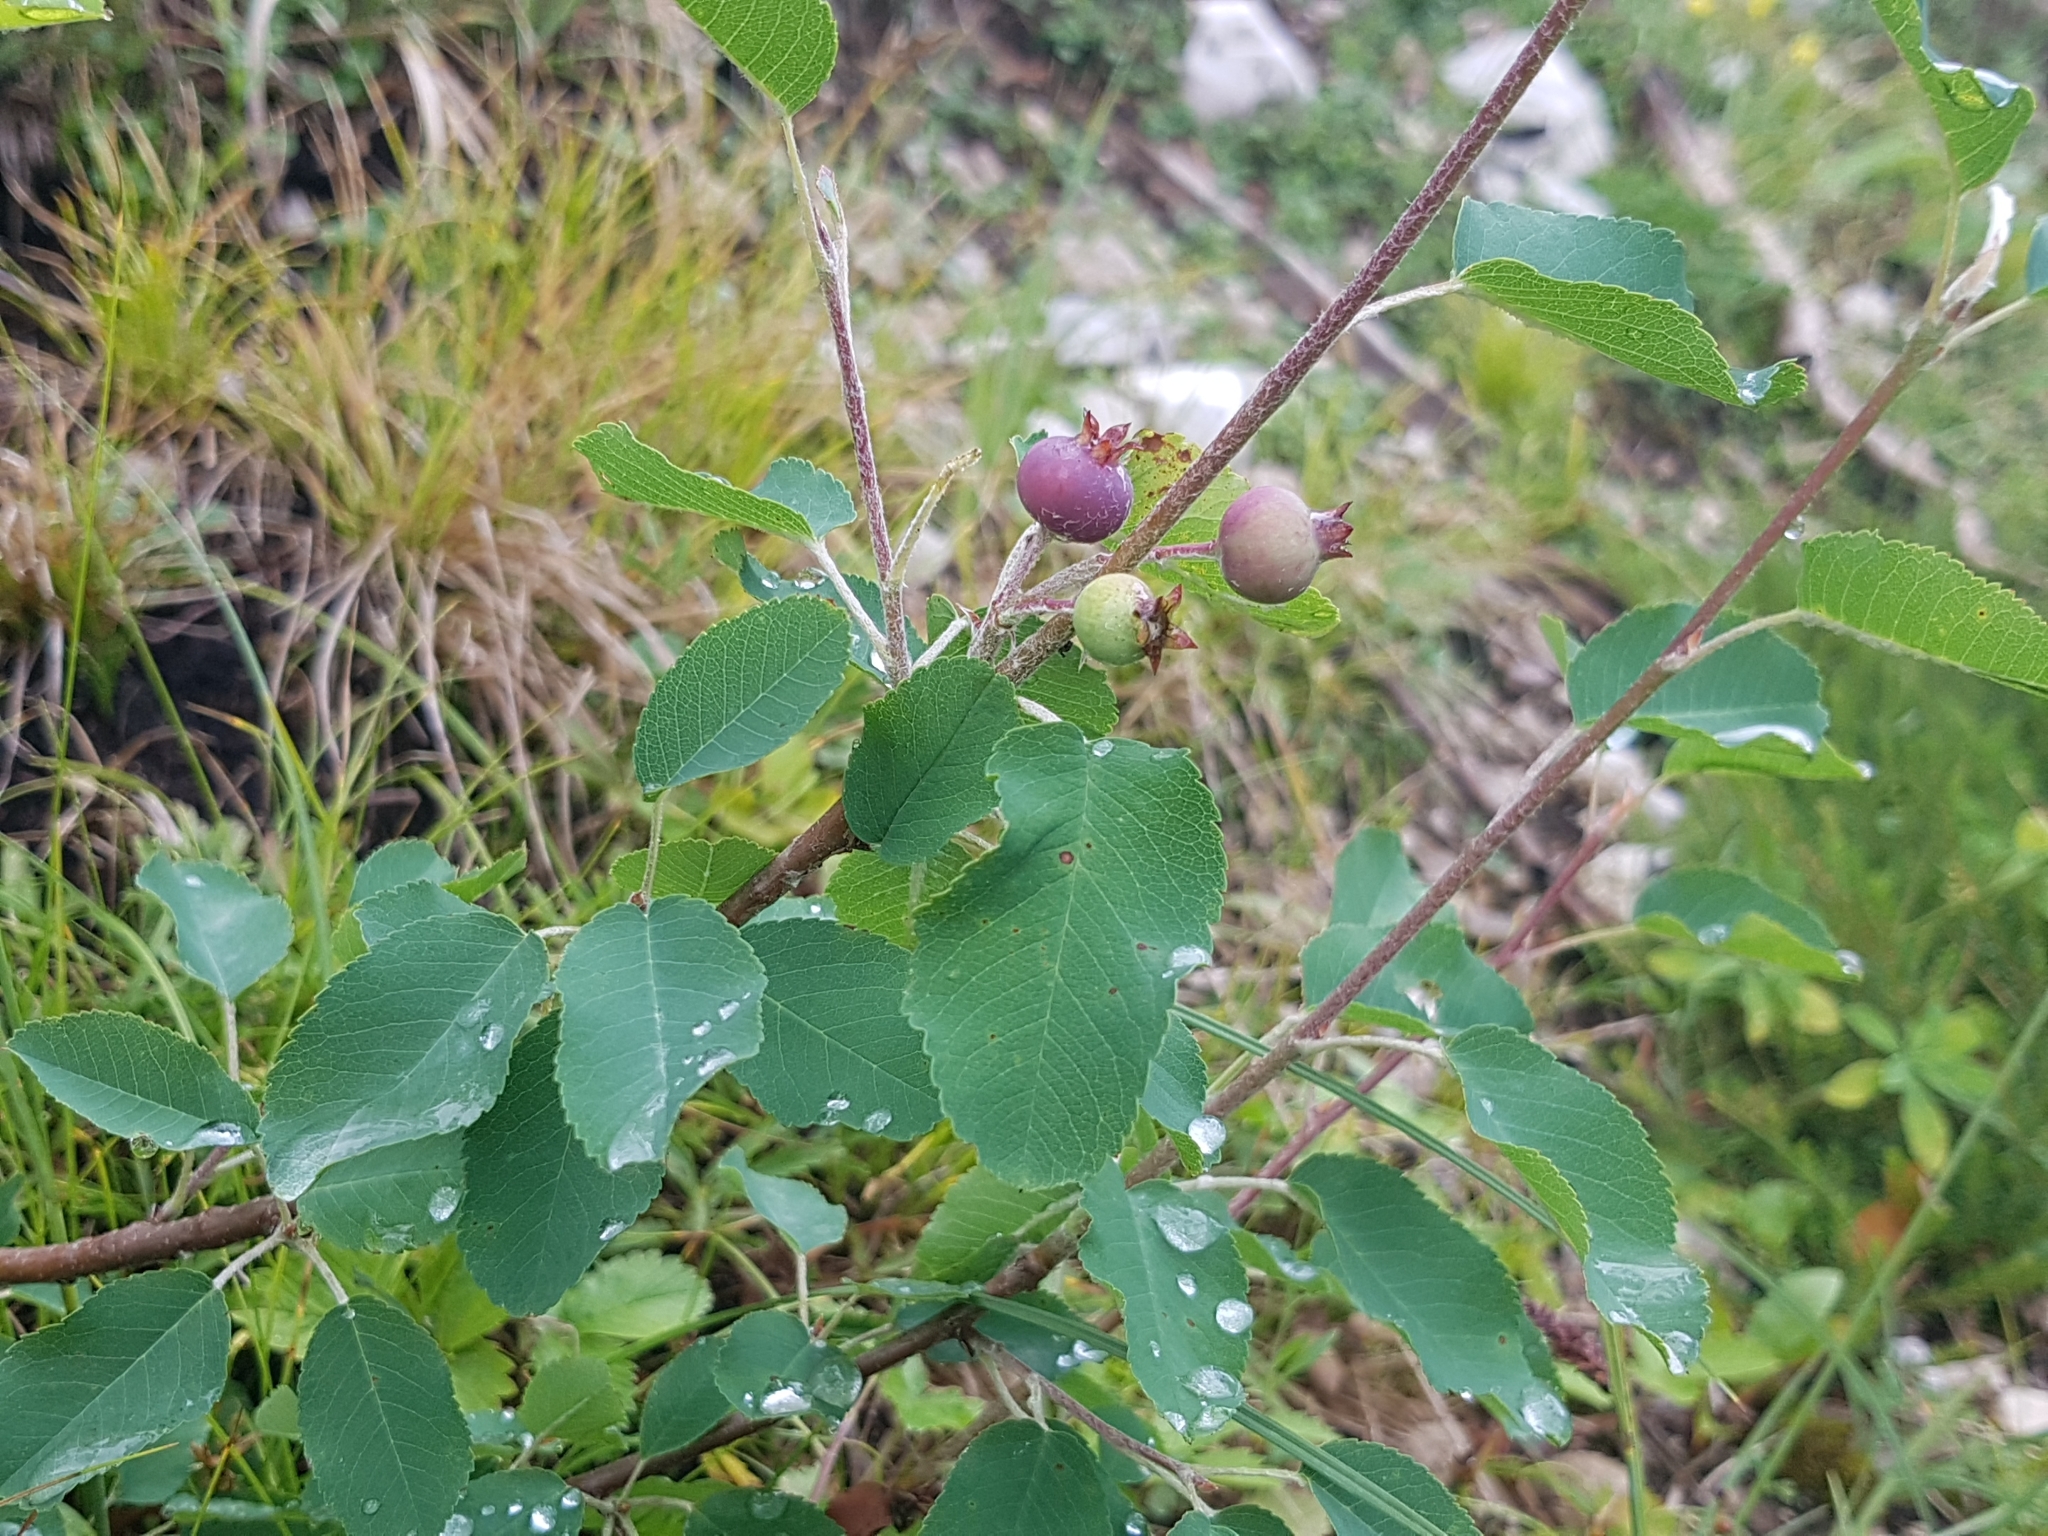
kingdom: Plantae
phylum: Tracheophyta
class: Magnoliopsida
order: Rosales
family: Rosaceae
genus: Amelanchier
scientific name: Amelanchier ovalis
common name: Serviceberry
